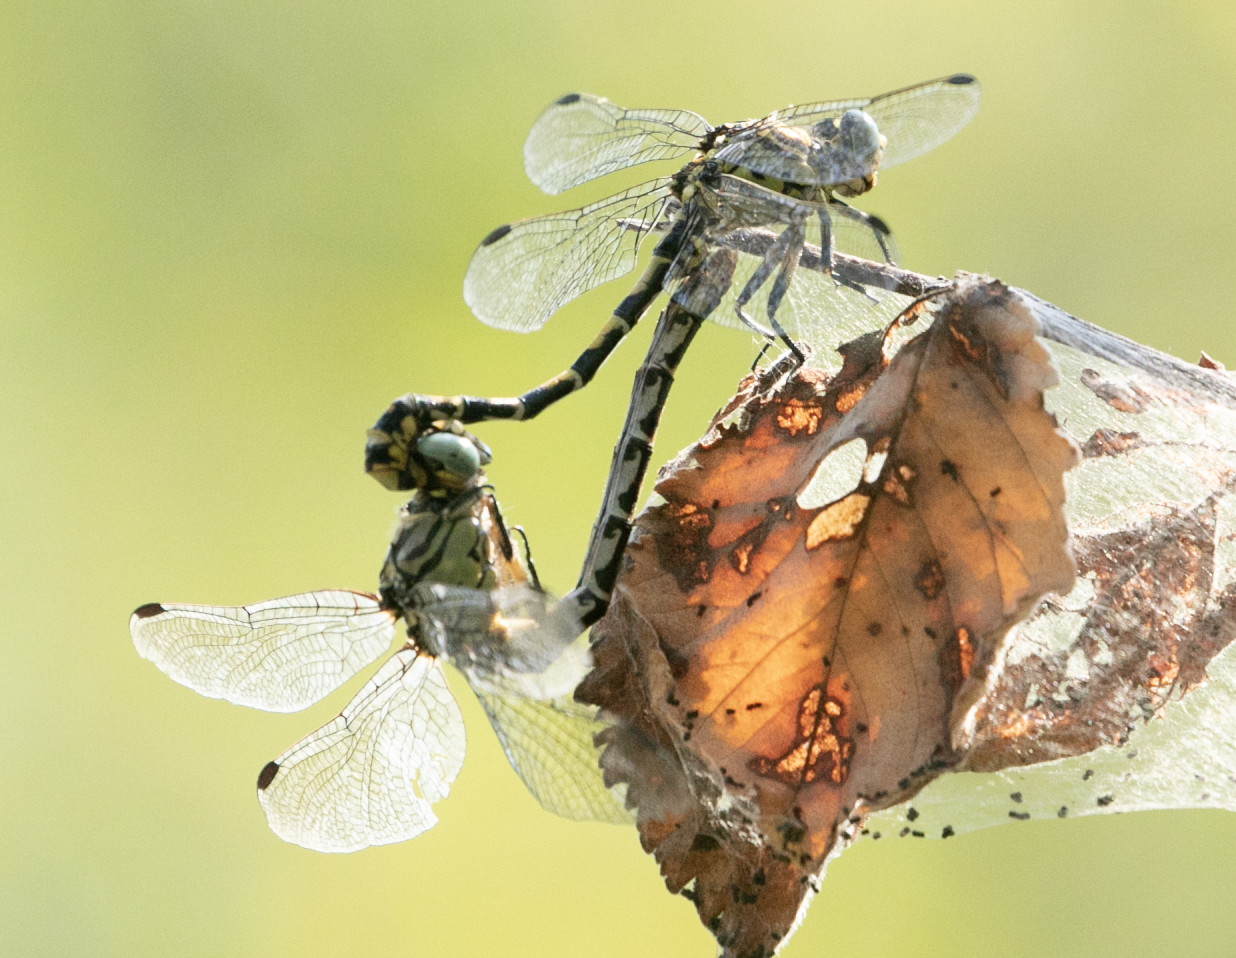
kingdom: Animalia
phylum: Arthropoda
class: Insecta
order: Odonata
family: Gomphidae
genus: Onychogomphus
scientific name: Onychogomphus forcipatus
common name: Small pincertail
